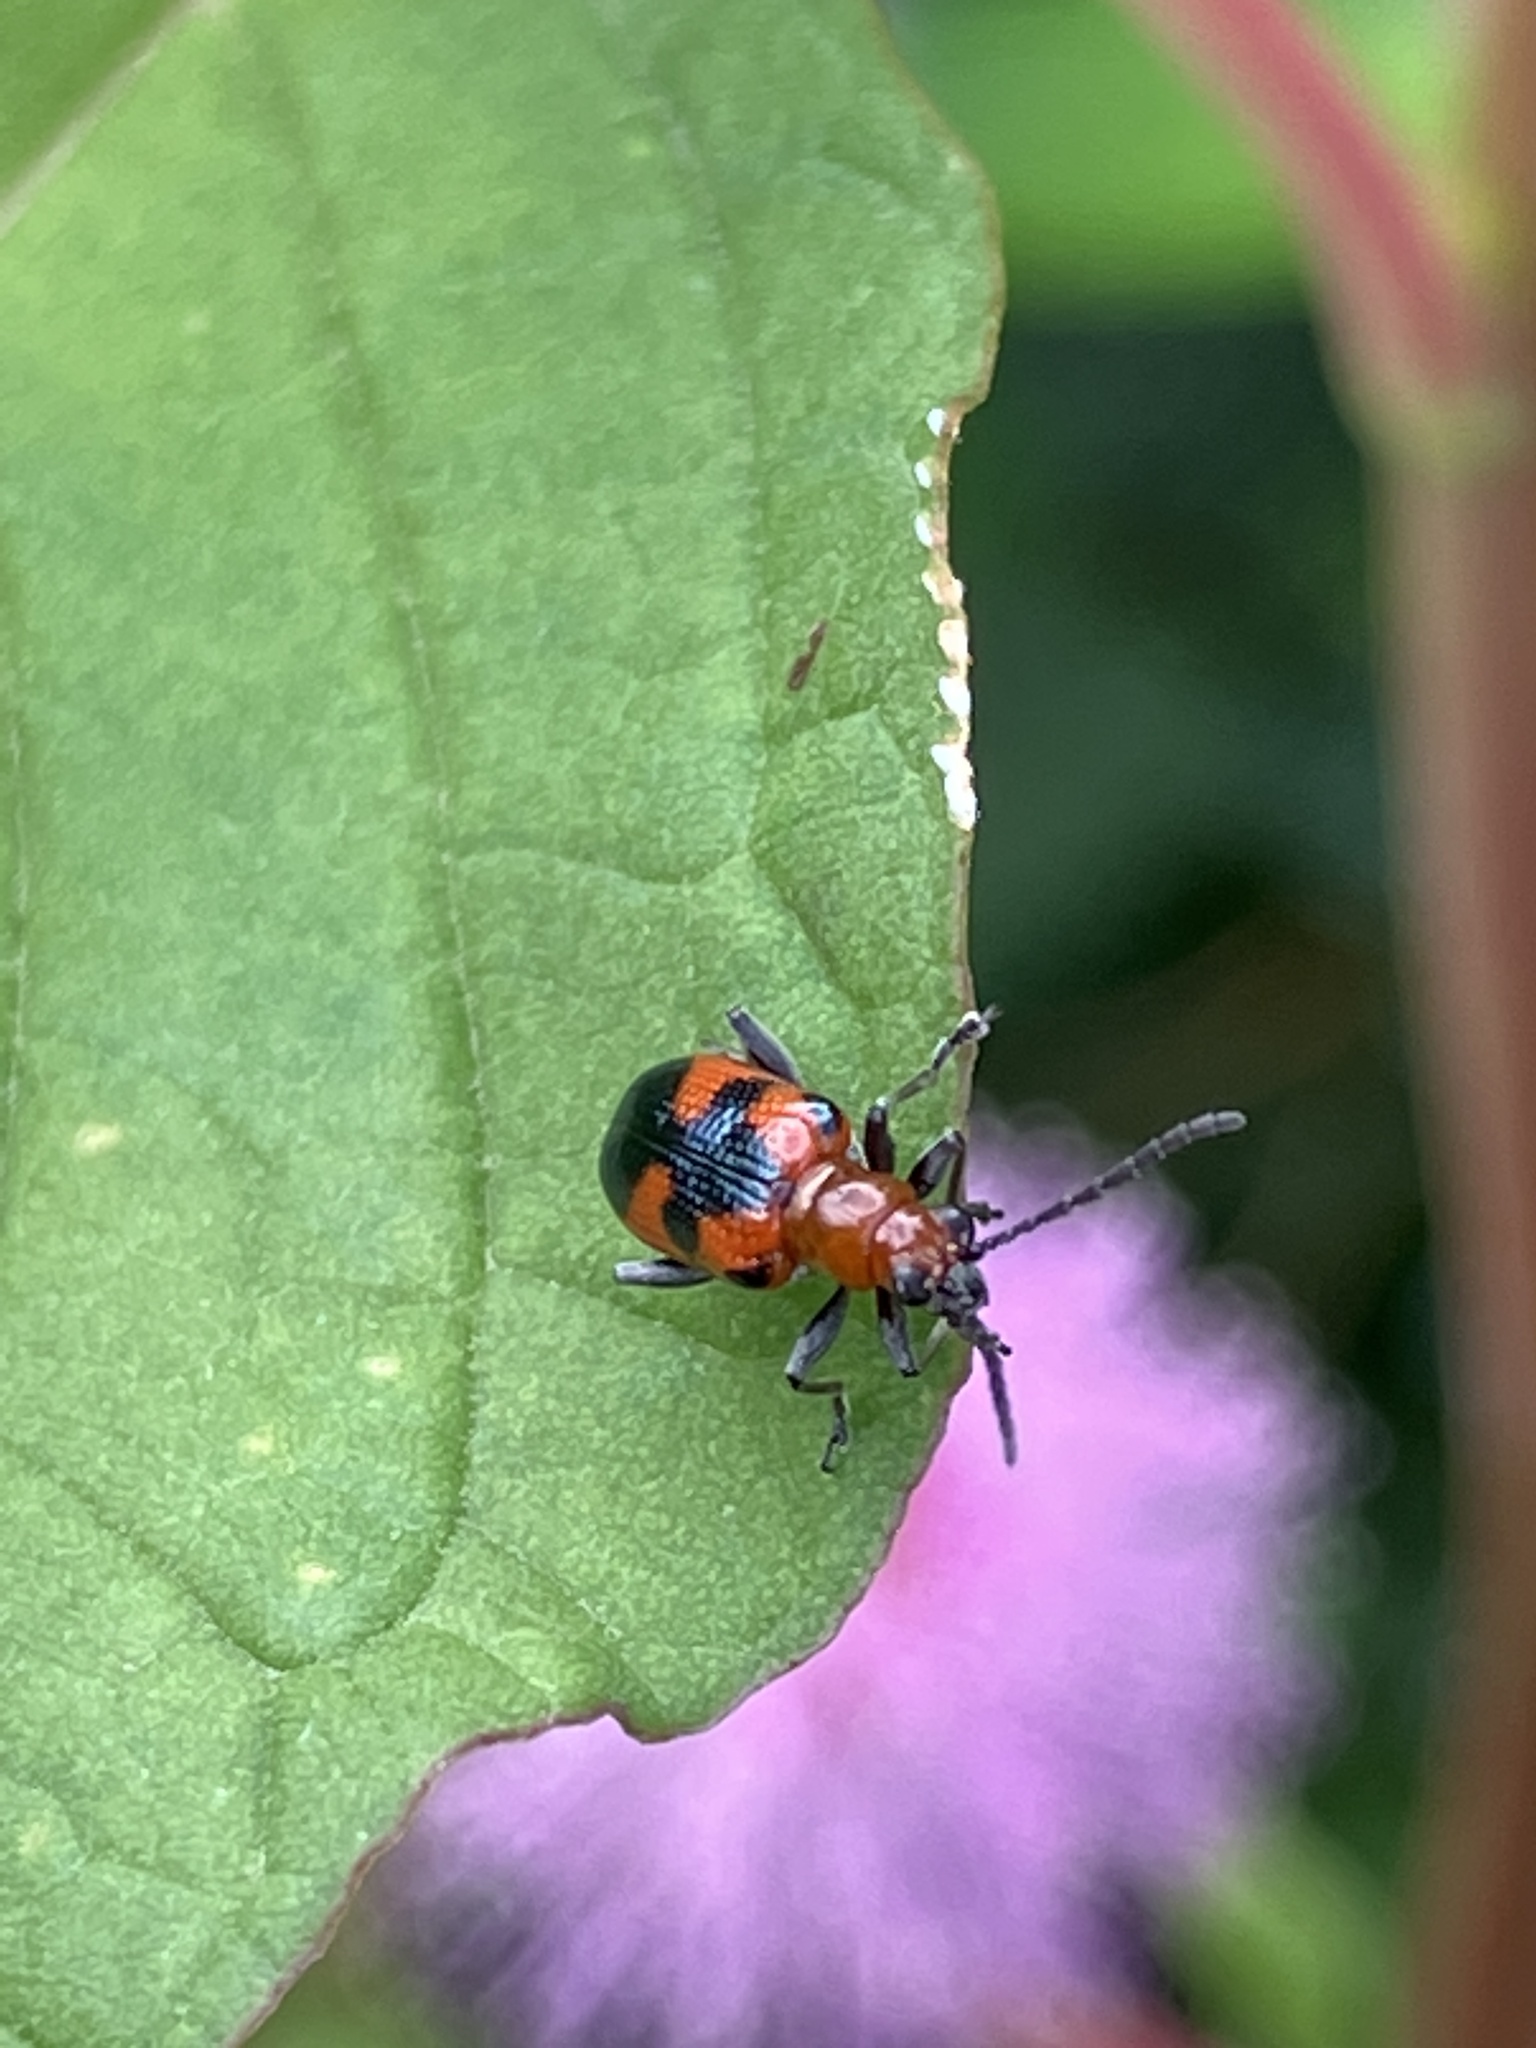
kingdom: Animalia
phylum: Arthropoda
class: Insecta
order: Coleoptera
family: Chrysomelidae
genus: Neolema
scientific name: Neolema dorsalis
